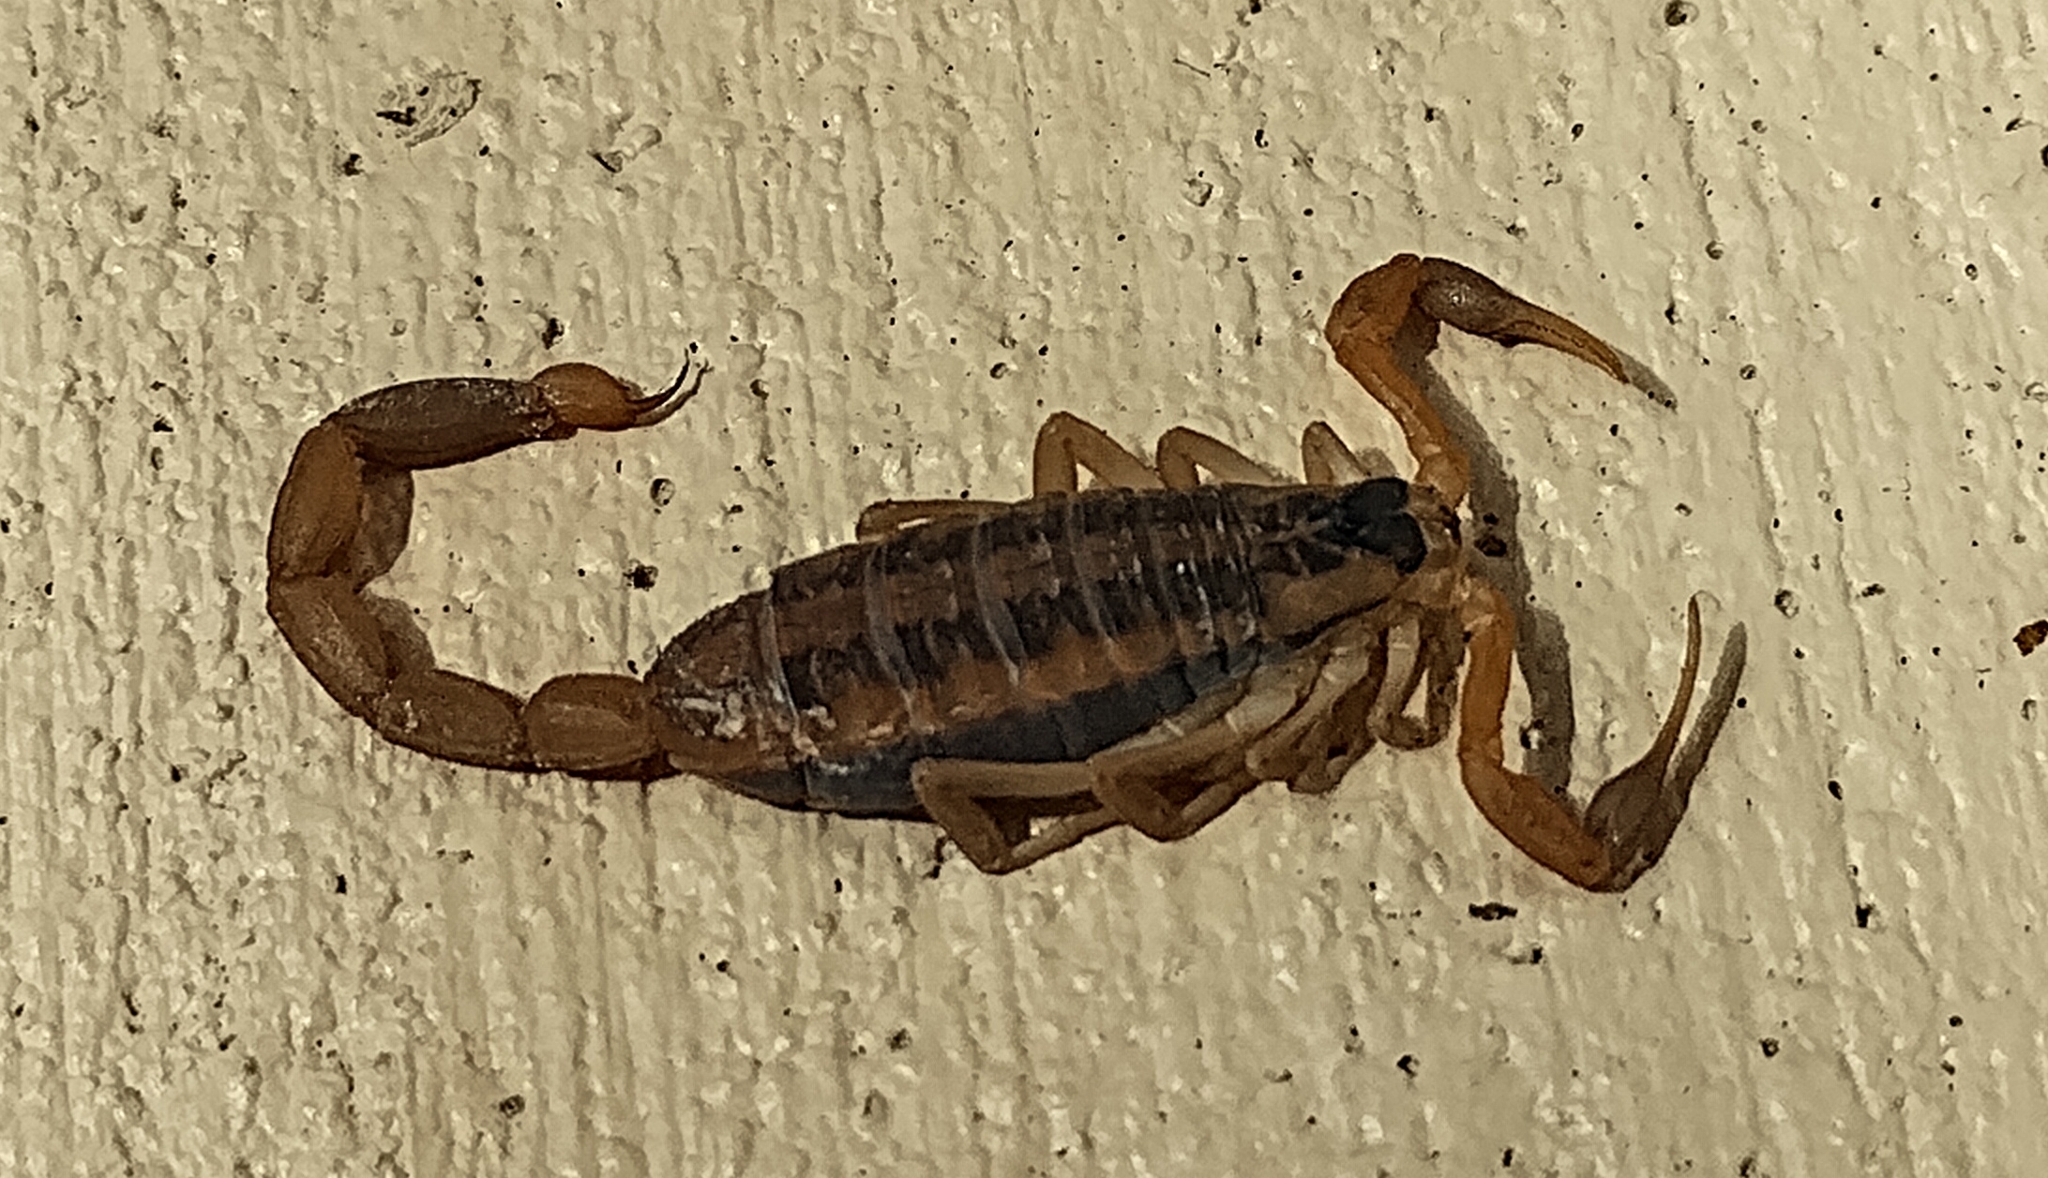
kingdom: Animalia
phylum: Arthropoda
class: Arachnida
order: Scorpiones
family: Buthidae
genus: Centruroides
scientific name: Centruroides vittatus
